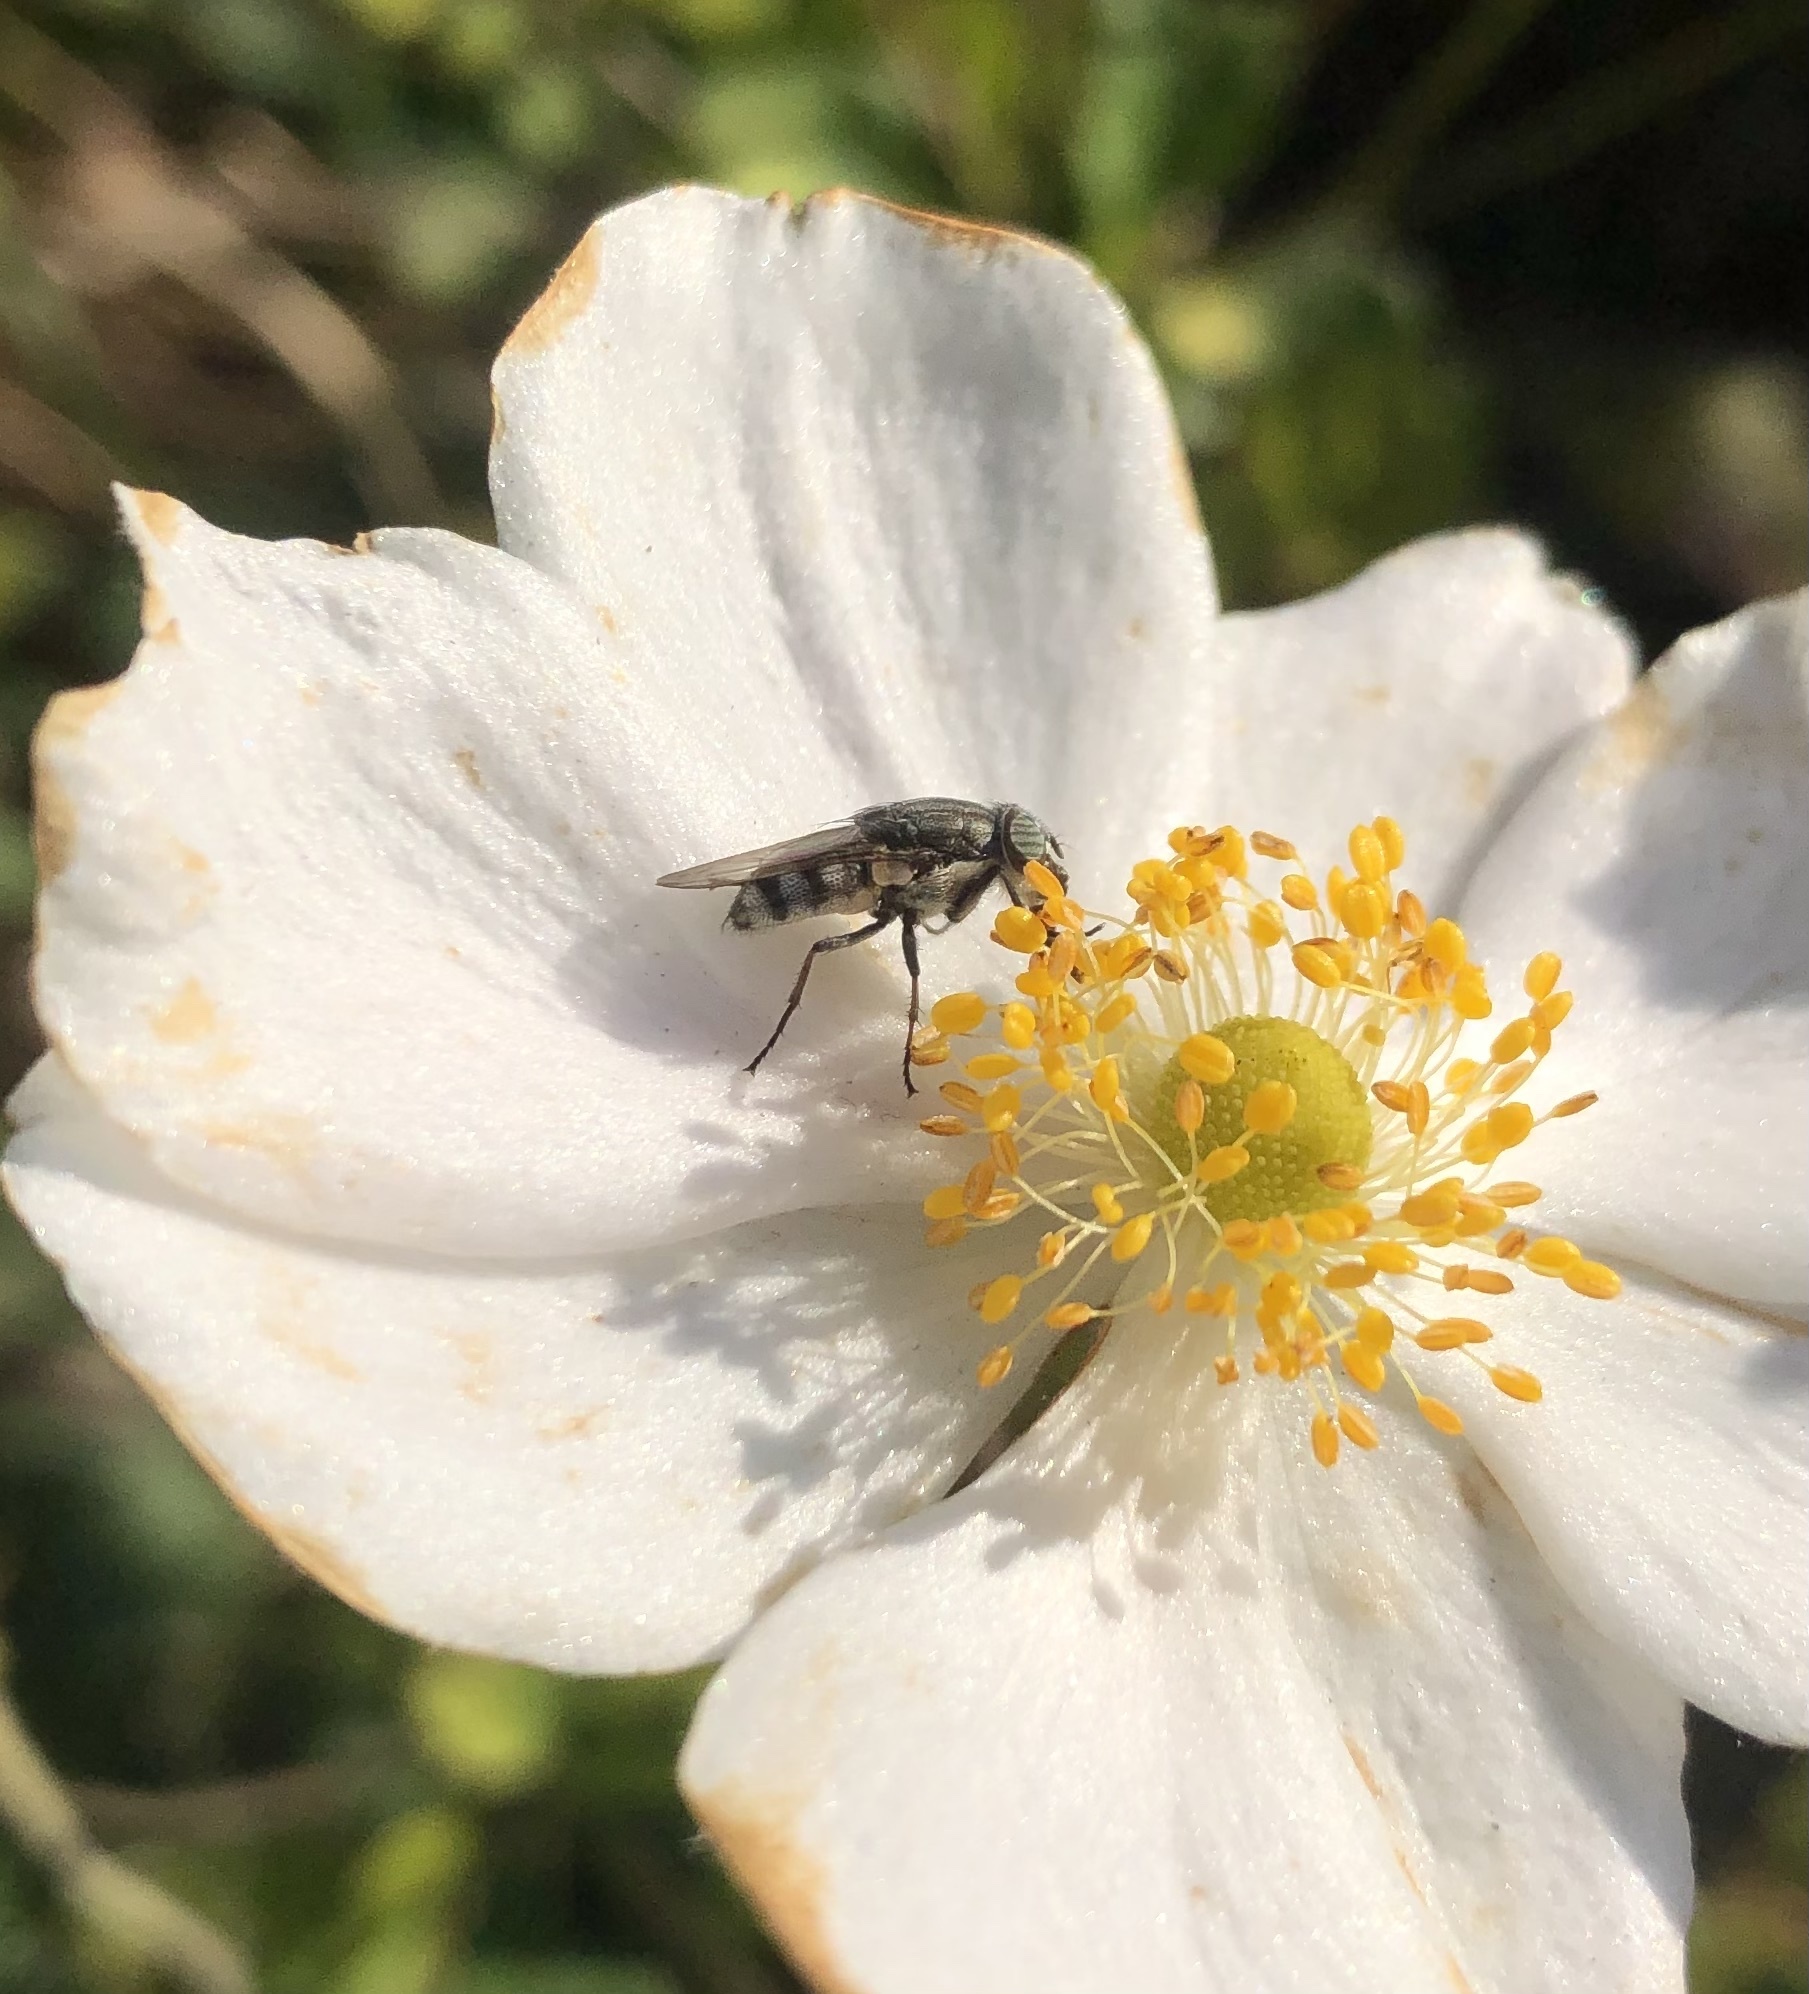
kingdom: Animalia
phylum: Arthropoda
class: Insecta
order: Diptera
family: Calliphoridae
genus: Stomorhina
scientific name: Stomorhina lunata
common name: Locust blowfly
